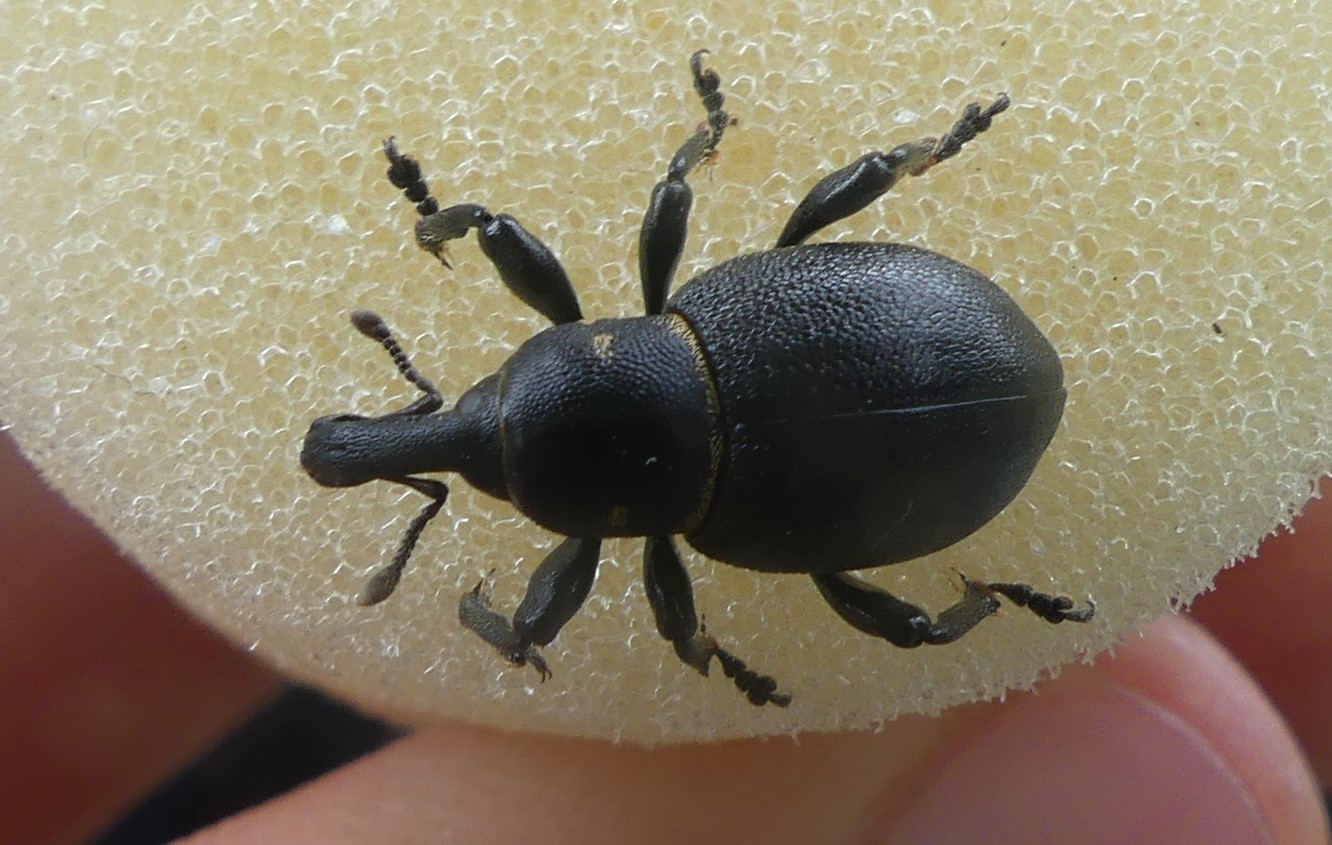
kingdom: Animalia
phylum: Arthropoda
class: Insecta
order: Coleoptera
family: Curculionidae
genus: Liparus
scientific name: Liparus coronatus
